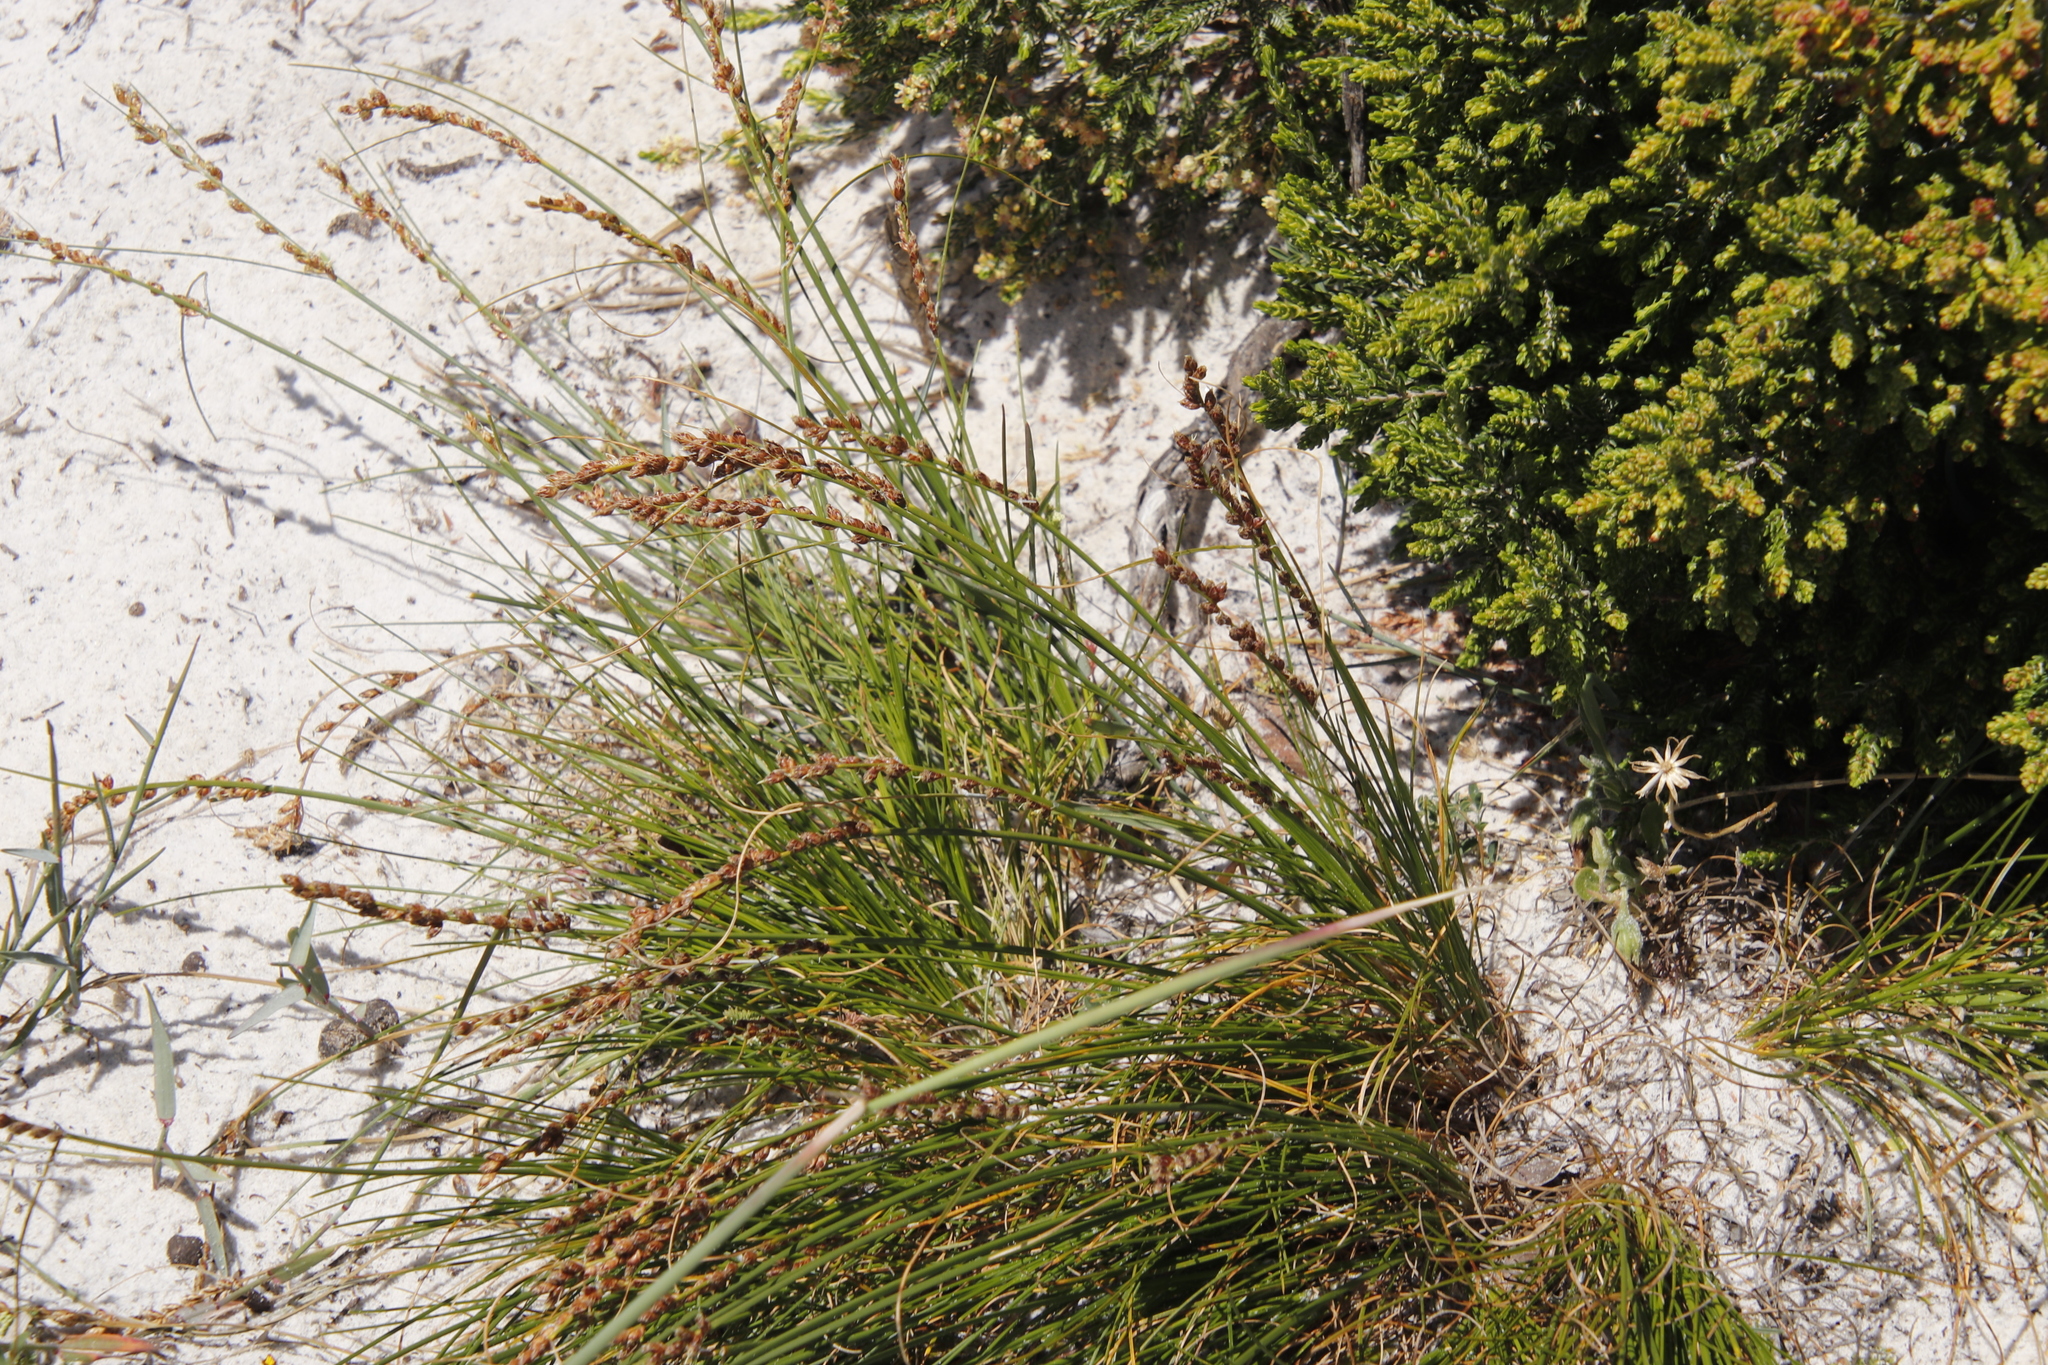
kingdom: Plantae
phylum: Tracheophyta
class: Liliopsida
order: Poales
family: Cyperaceae
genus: Ficinia
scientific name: Ficinia secunda
